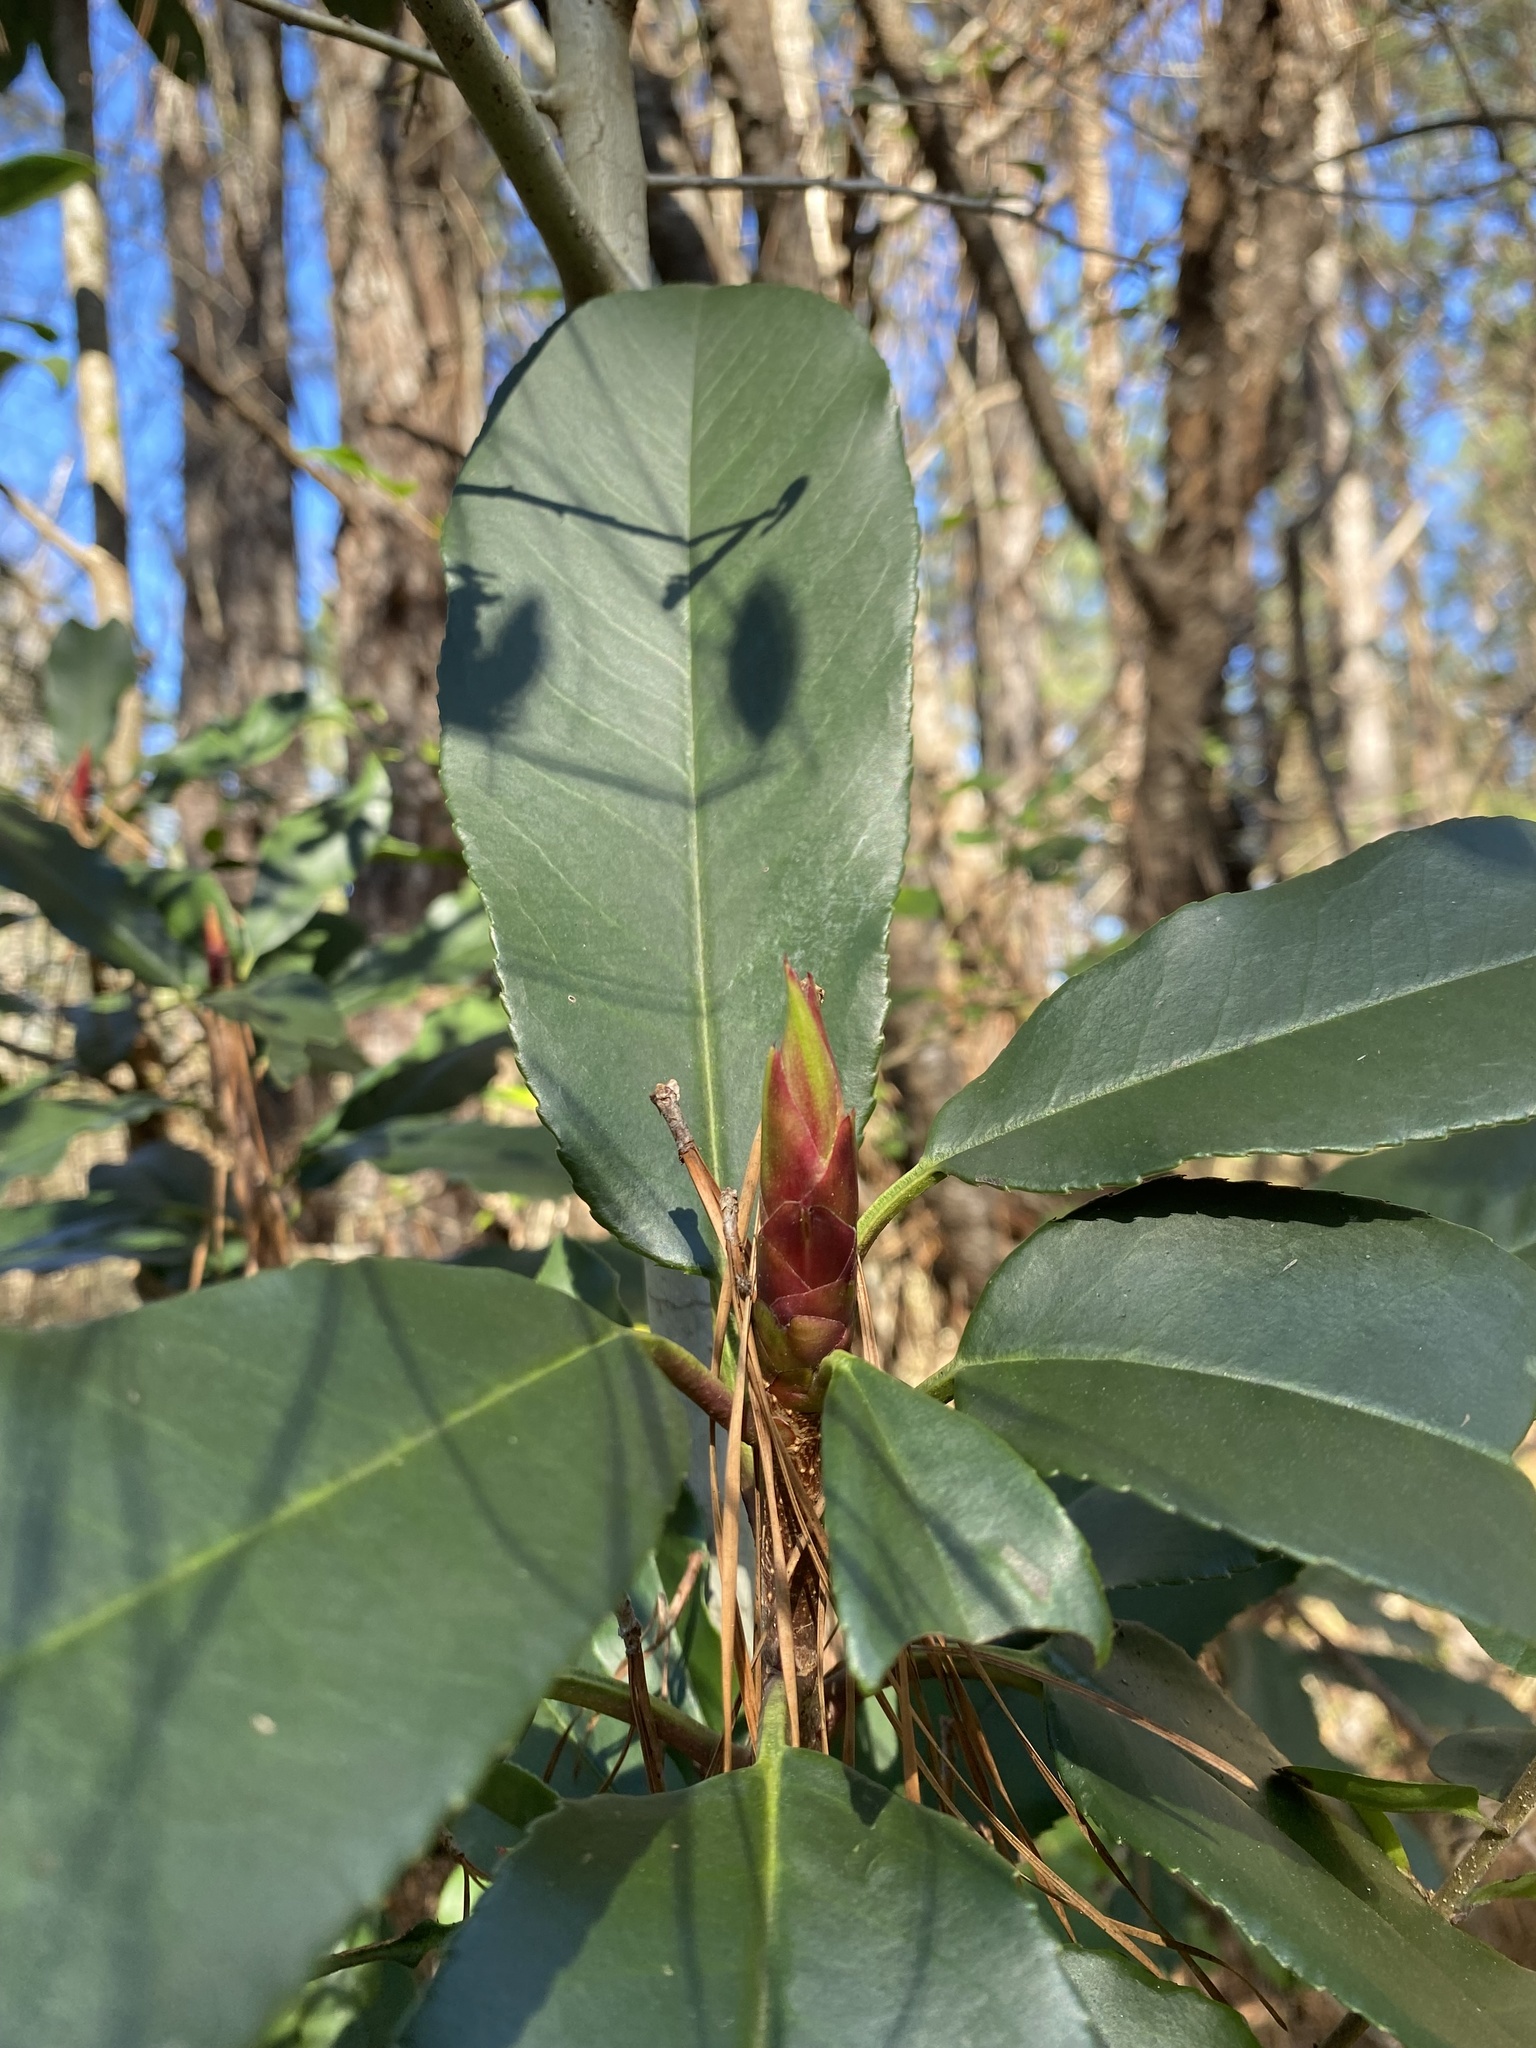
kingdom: Plantae
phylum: Tracheophyta
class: Magnoliopsida
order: Rosales
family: Rosaceae
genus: Photinia
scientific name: Photinia serratifolia
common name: Taiwanese photinia
